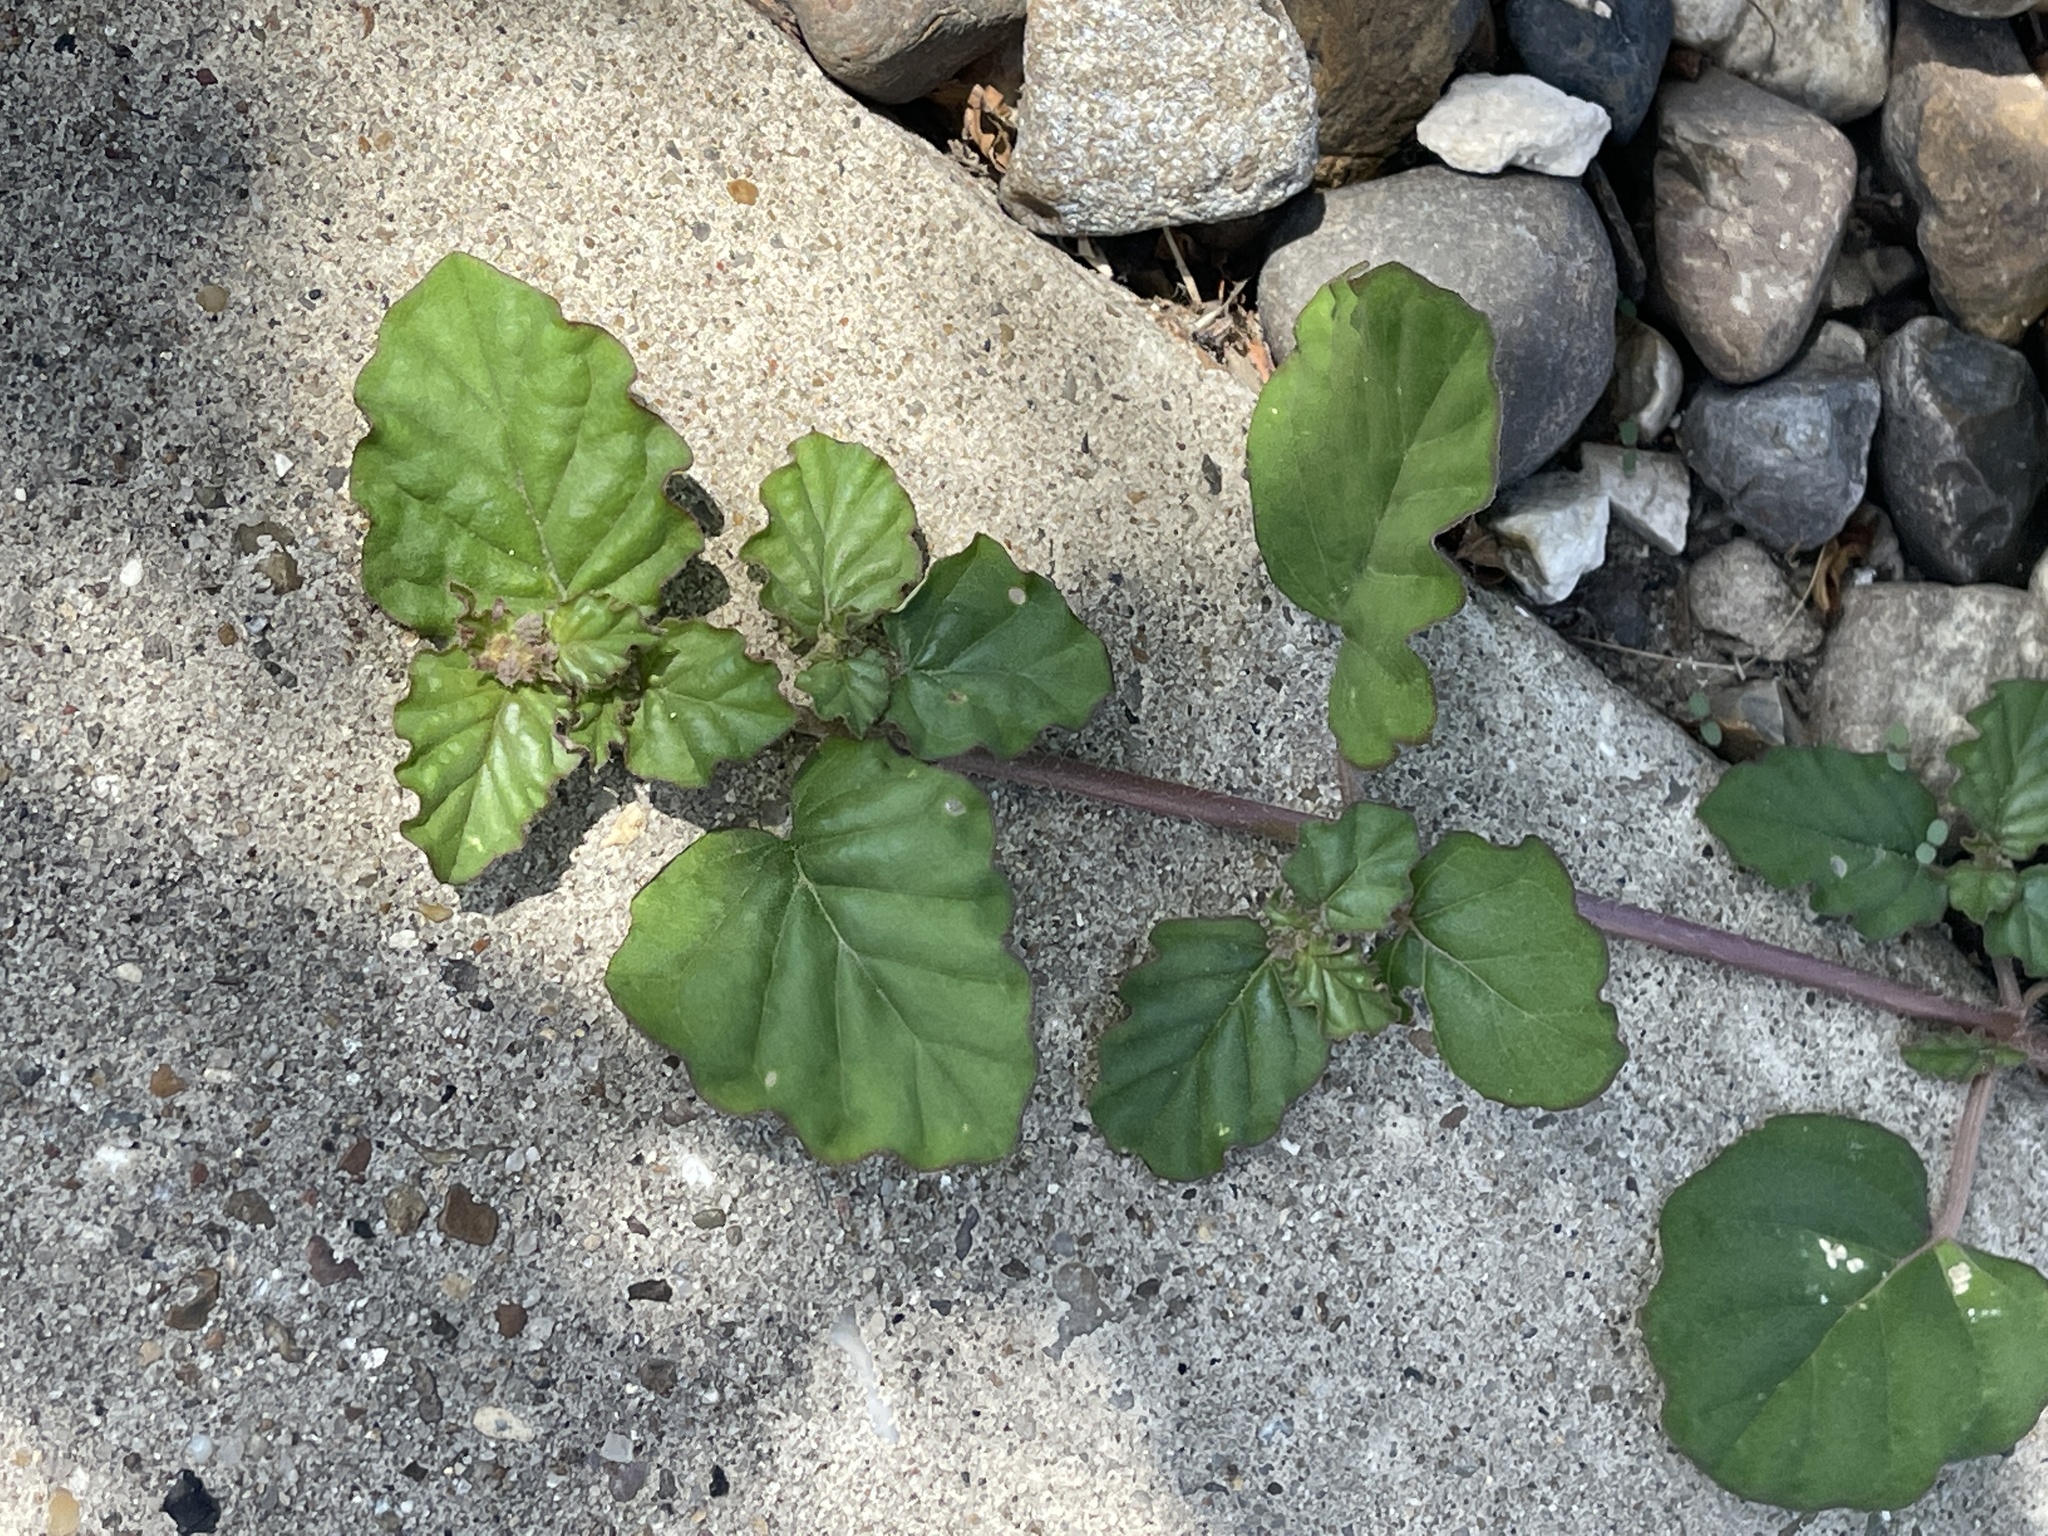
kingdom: Plantae
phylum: Tracheophyta
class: Magnoliopsida
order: Caryophyllales
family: Nyctaginaceae
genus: Boerhavia
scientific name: Boerhavia coccinea
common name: Scarlet spiderling
